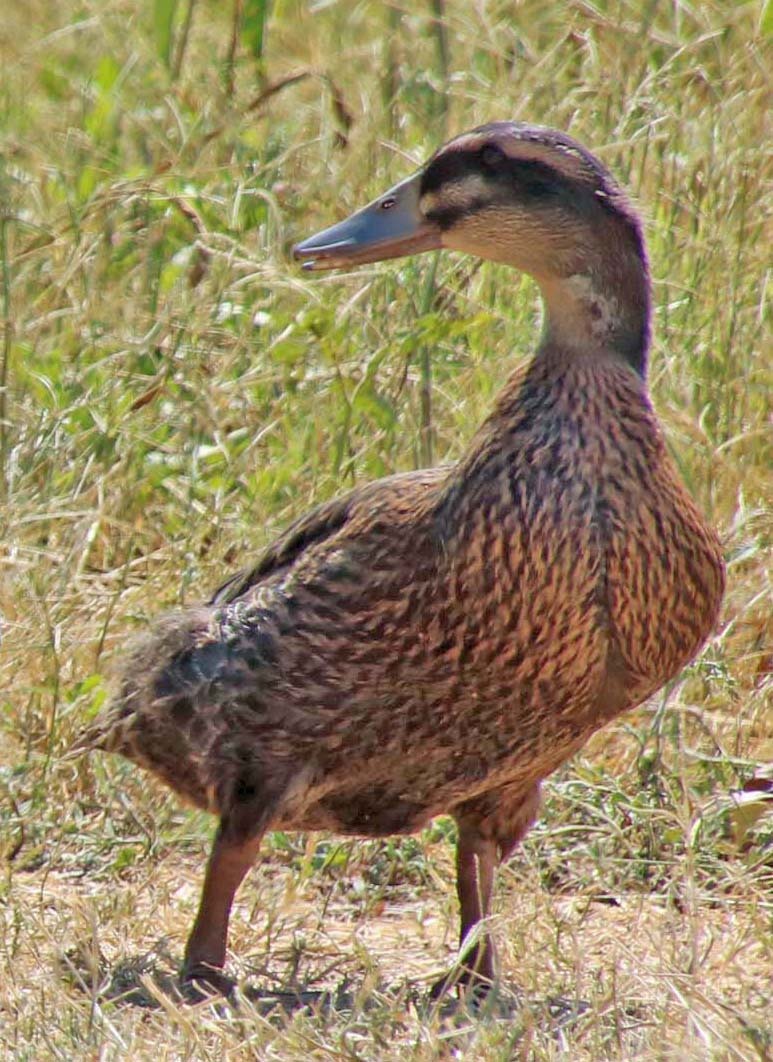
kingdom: Animalia
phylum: Chordata
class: Aves
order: Anseriformes
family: Anatidae
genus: Anas
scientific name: Anas platyrhynchos
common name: Mallard
